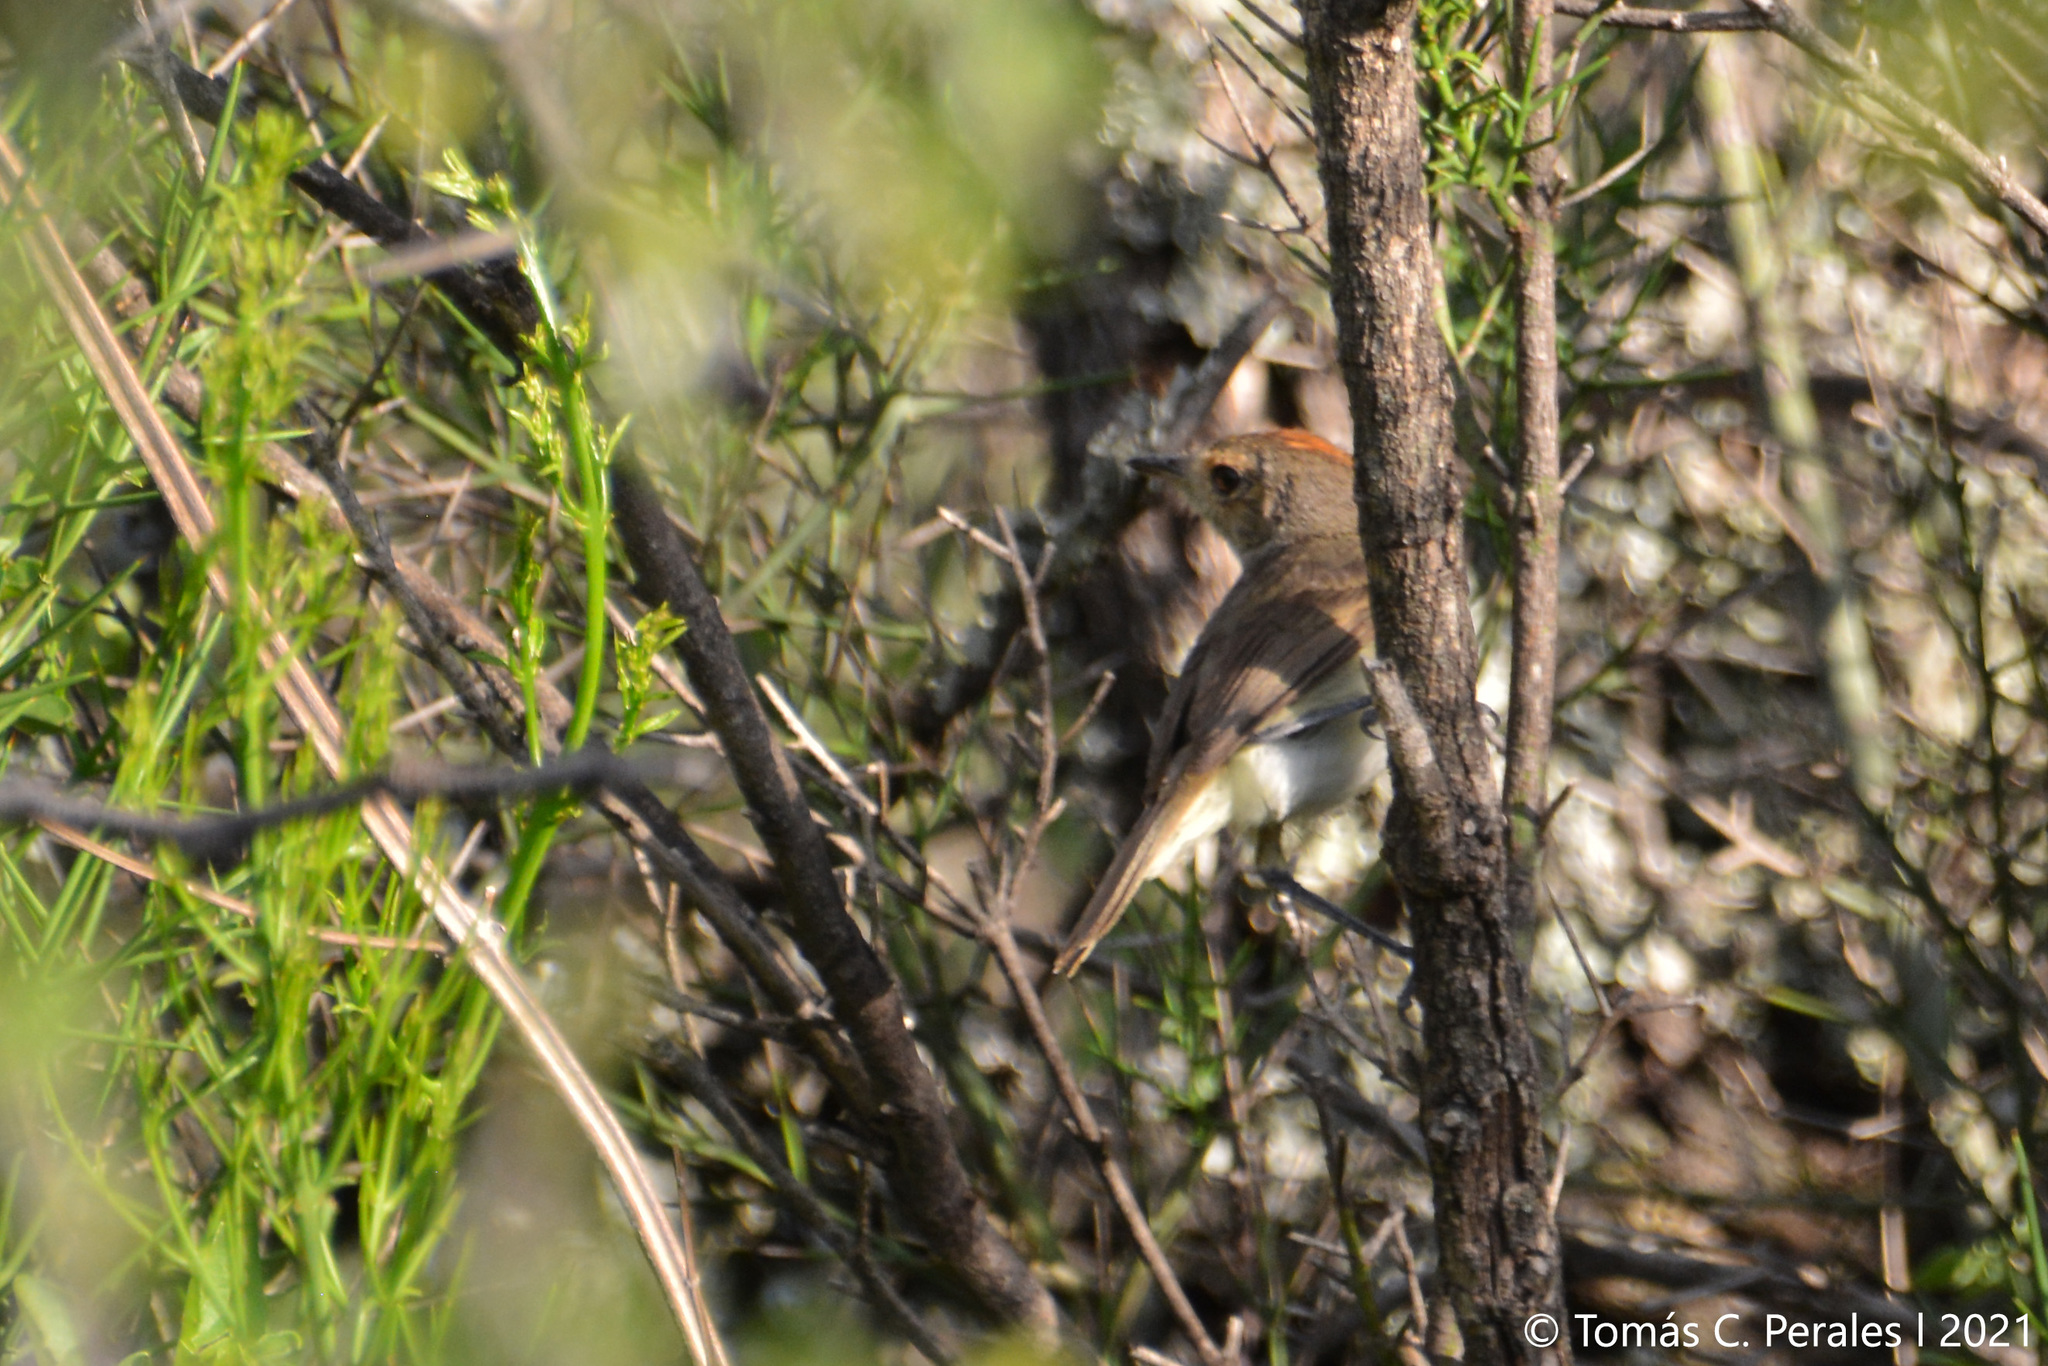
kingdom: Animalia
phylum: Chordata
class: Aves
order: Passeriformes
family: Tyrannidae
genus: Euscarthmus
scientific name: Euscarthmus meloryphus
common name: Tawny-crowned pygmy tyrant
